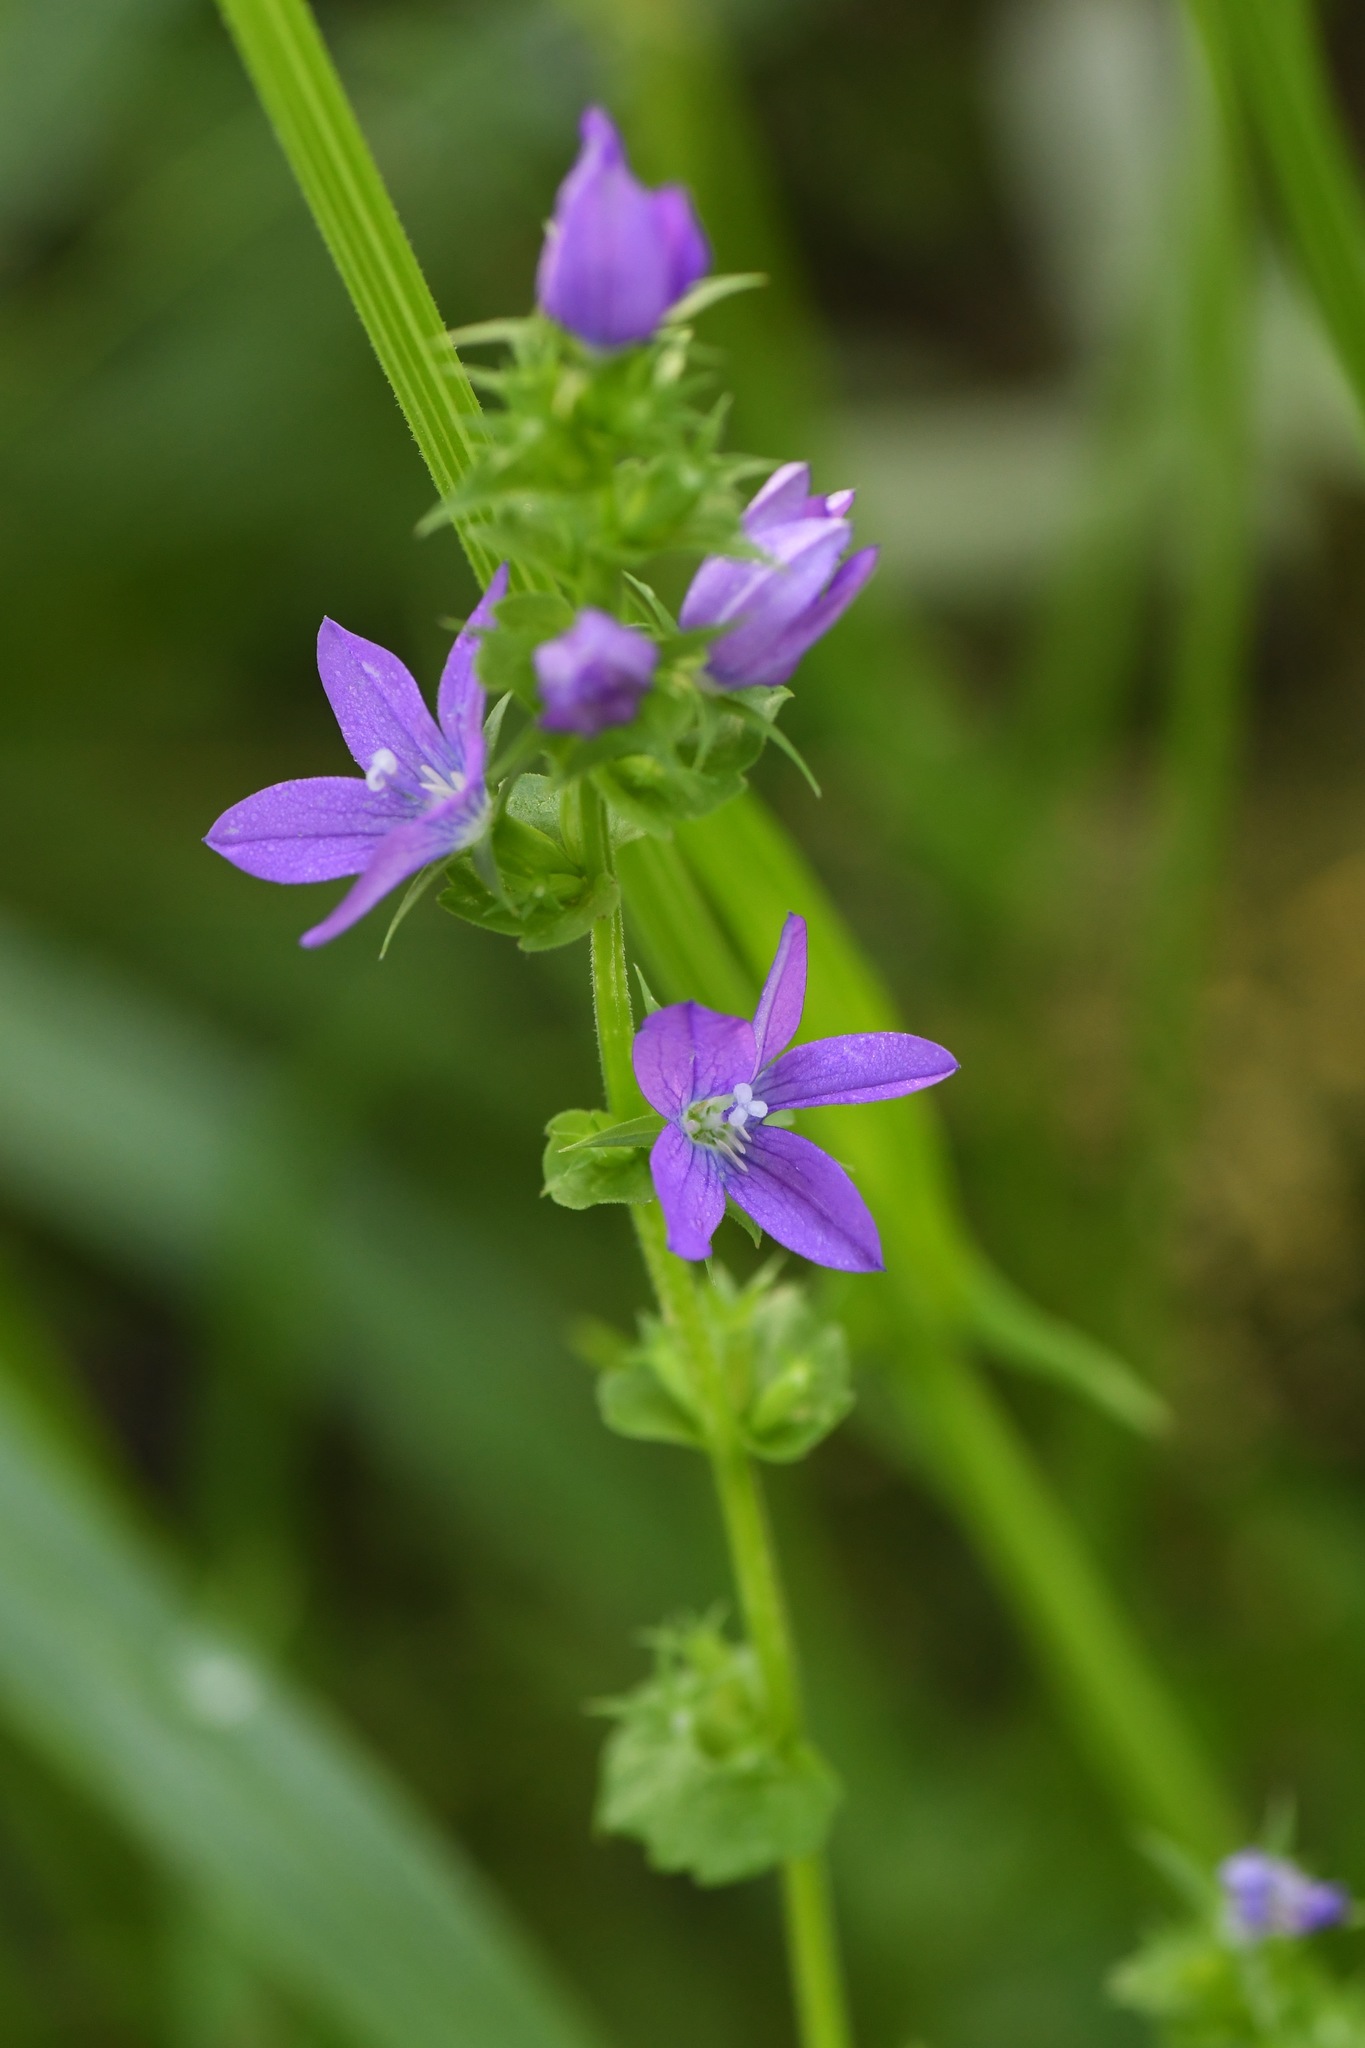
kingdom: Plantae
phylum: Tracheophyta
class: Magnoliopsida
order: Asterales
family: Campanulaceae
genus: Triodanis
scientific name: Triodanis perfoliata
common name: Clasping venus' looking-glass
